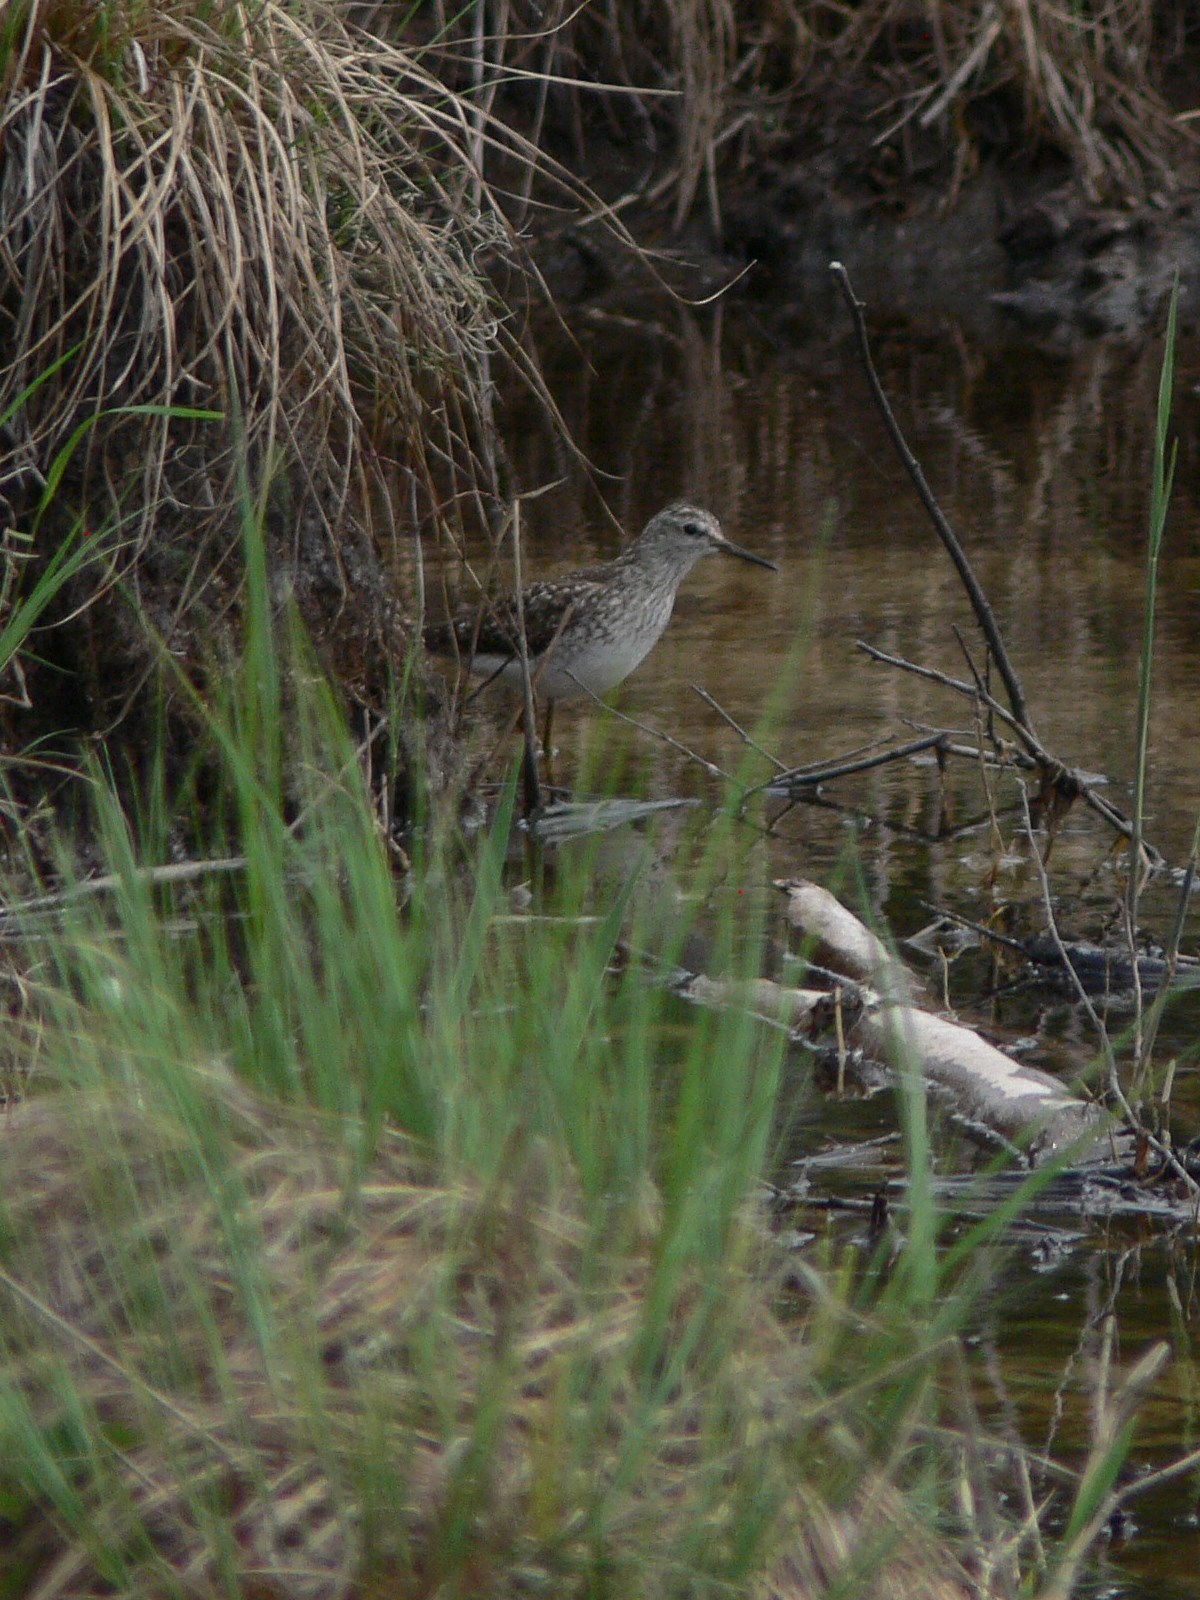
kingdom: Animalia
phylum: Chordata
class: Aves
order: Charadriiformes
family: Scolopacidae
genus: Tringa
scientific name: Tringa glareola
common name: Wood sandpiper
